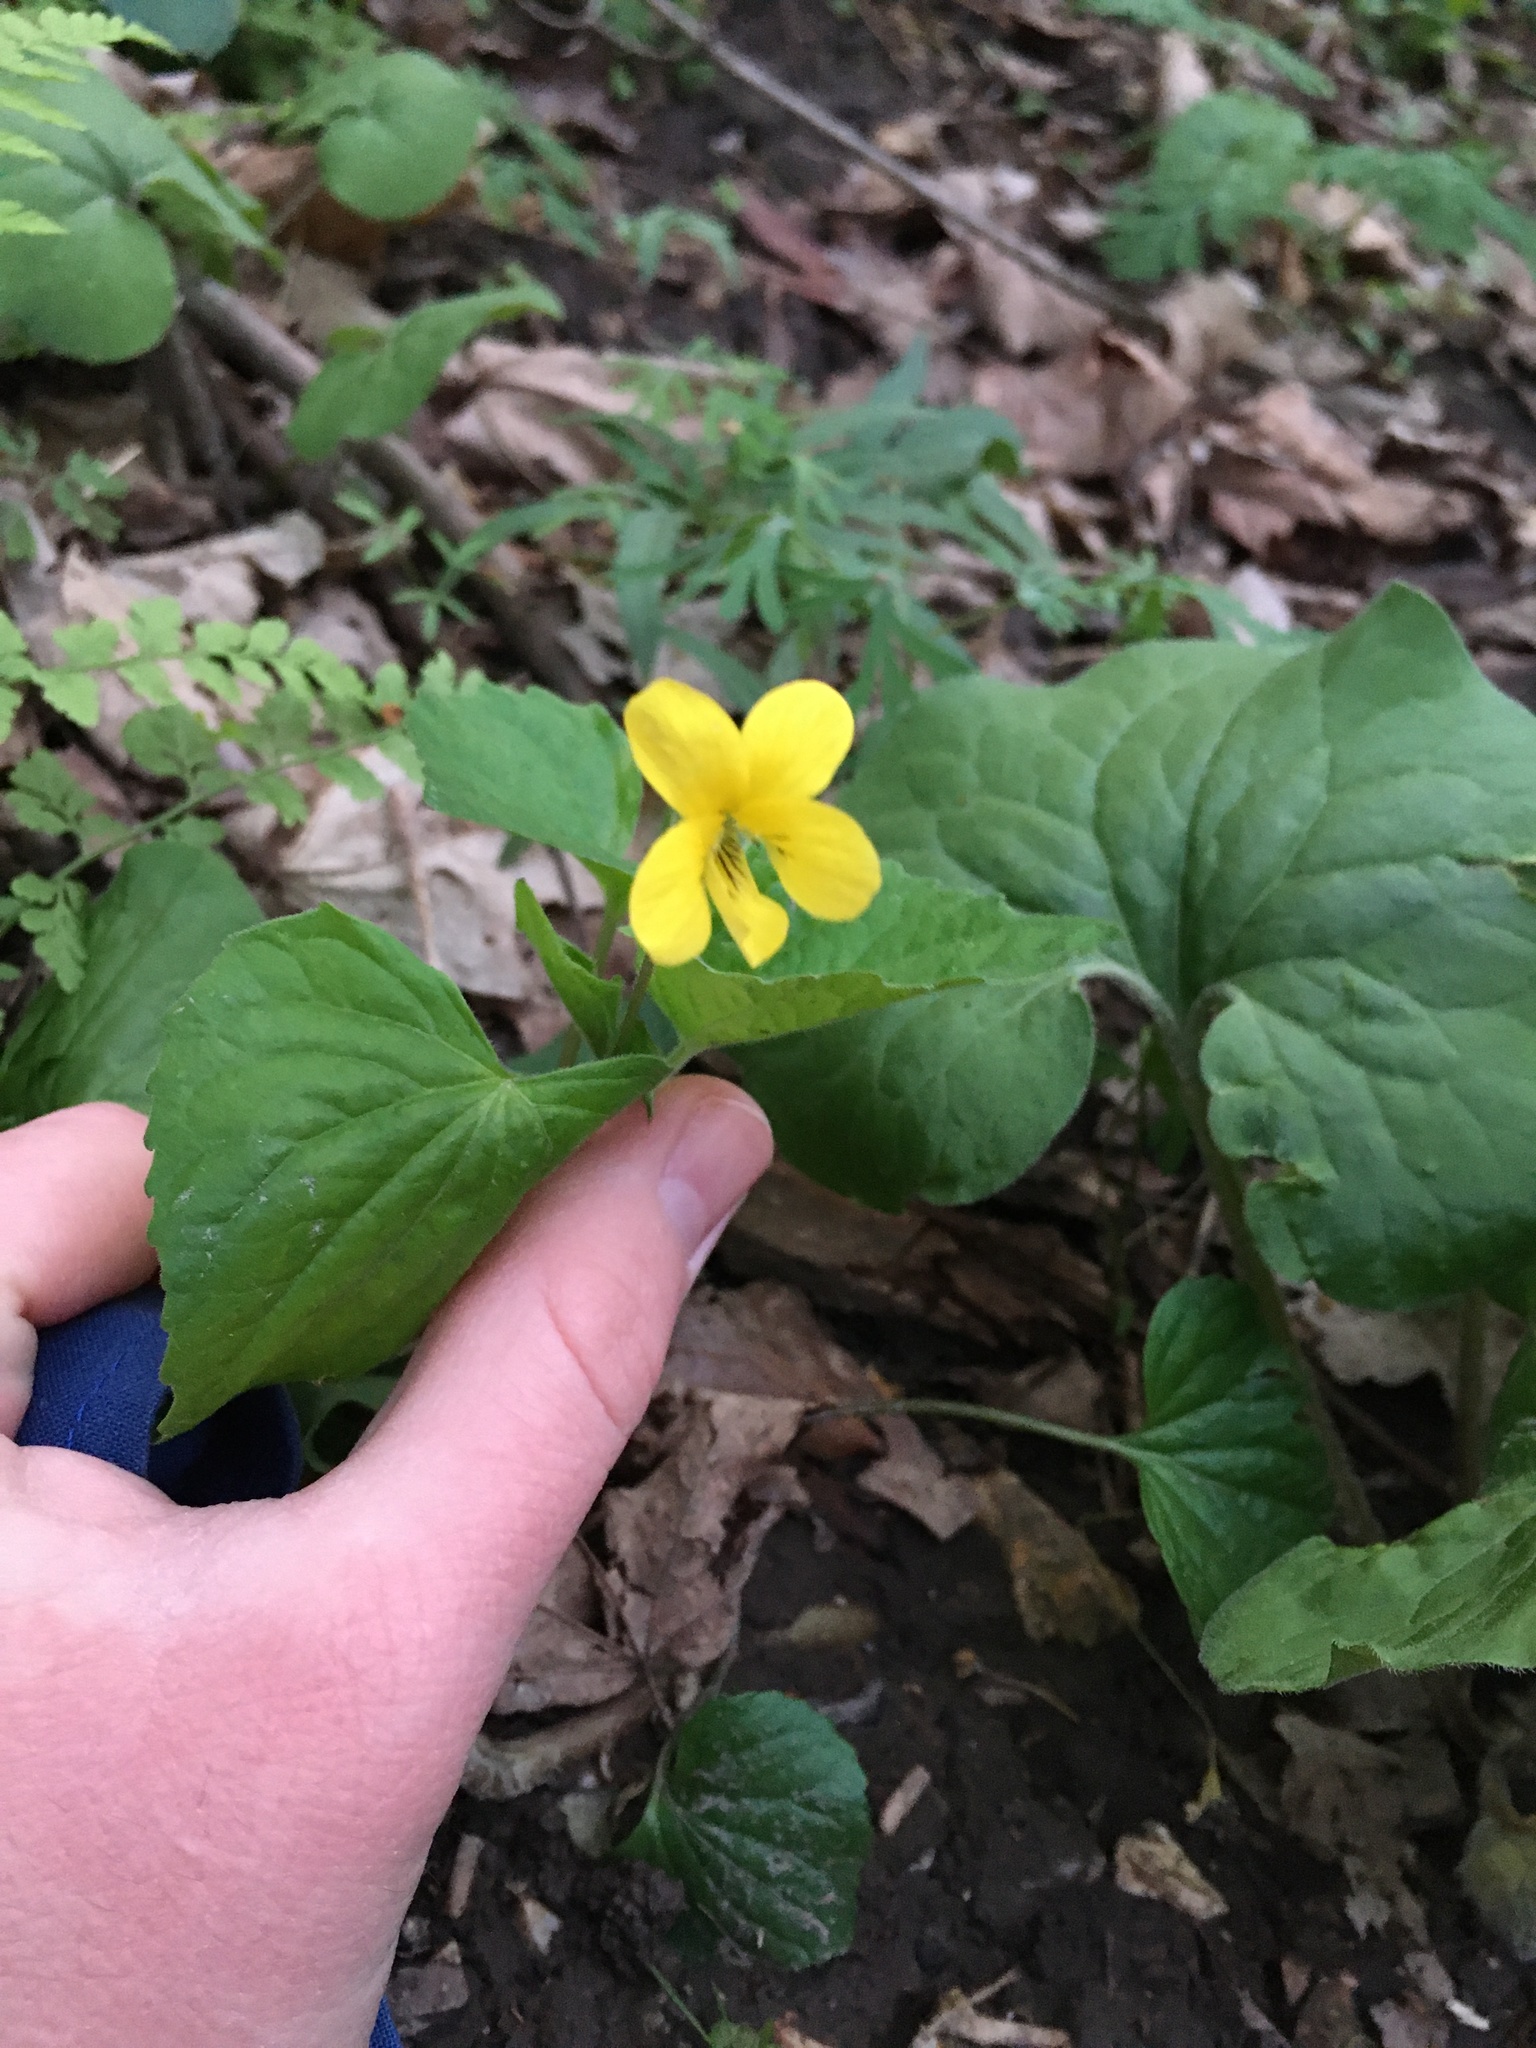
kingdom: Plantae
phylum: Tracheophyta
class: Magnoliopsida
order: Malpighiales
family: Violaceae
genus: Viola
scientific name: Viola eriocarpa
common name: Smooth yellow violet
